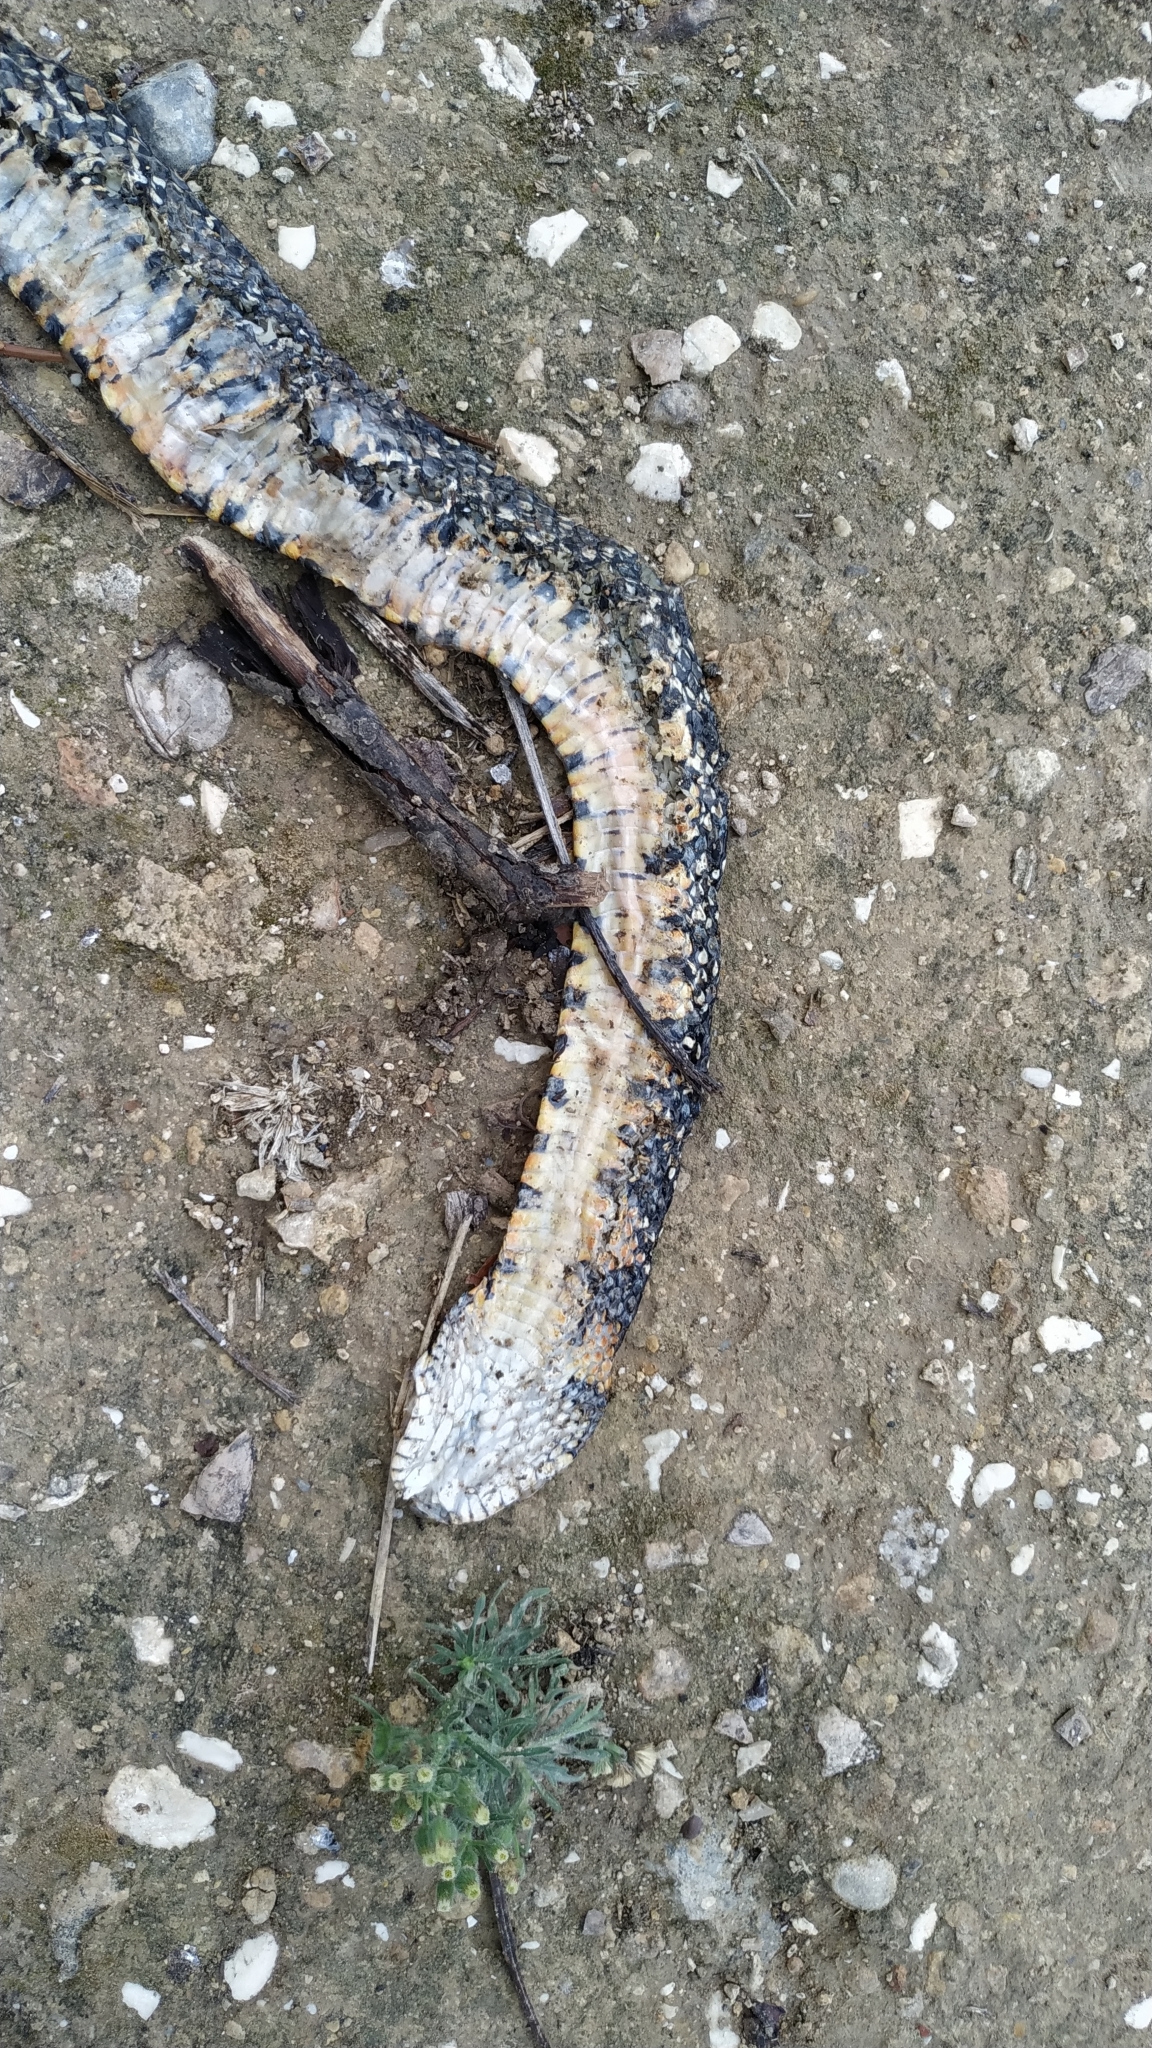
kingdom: Animalia
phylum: Chordata
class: Squamata
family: Colubridae
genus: Hemorrhois
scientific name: Hemorrhois hippocrepis
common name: Horseshoe whip snake
